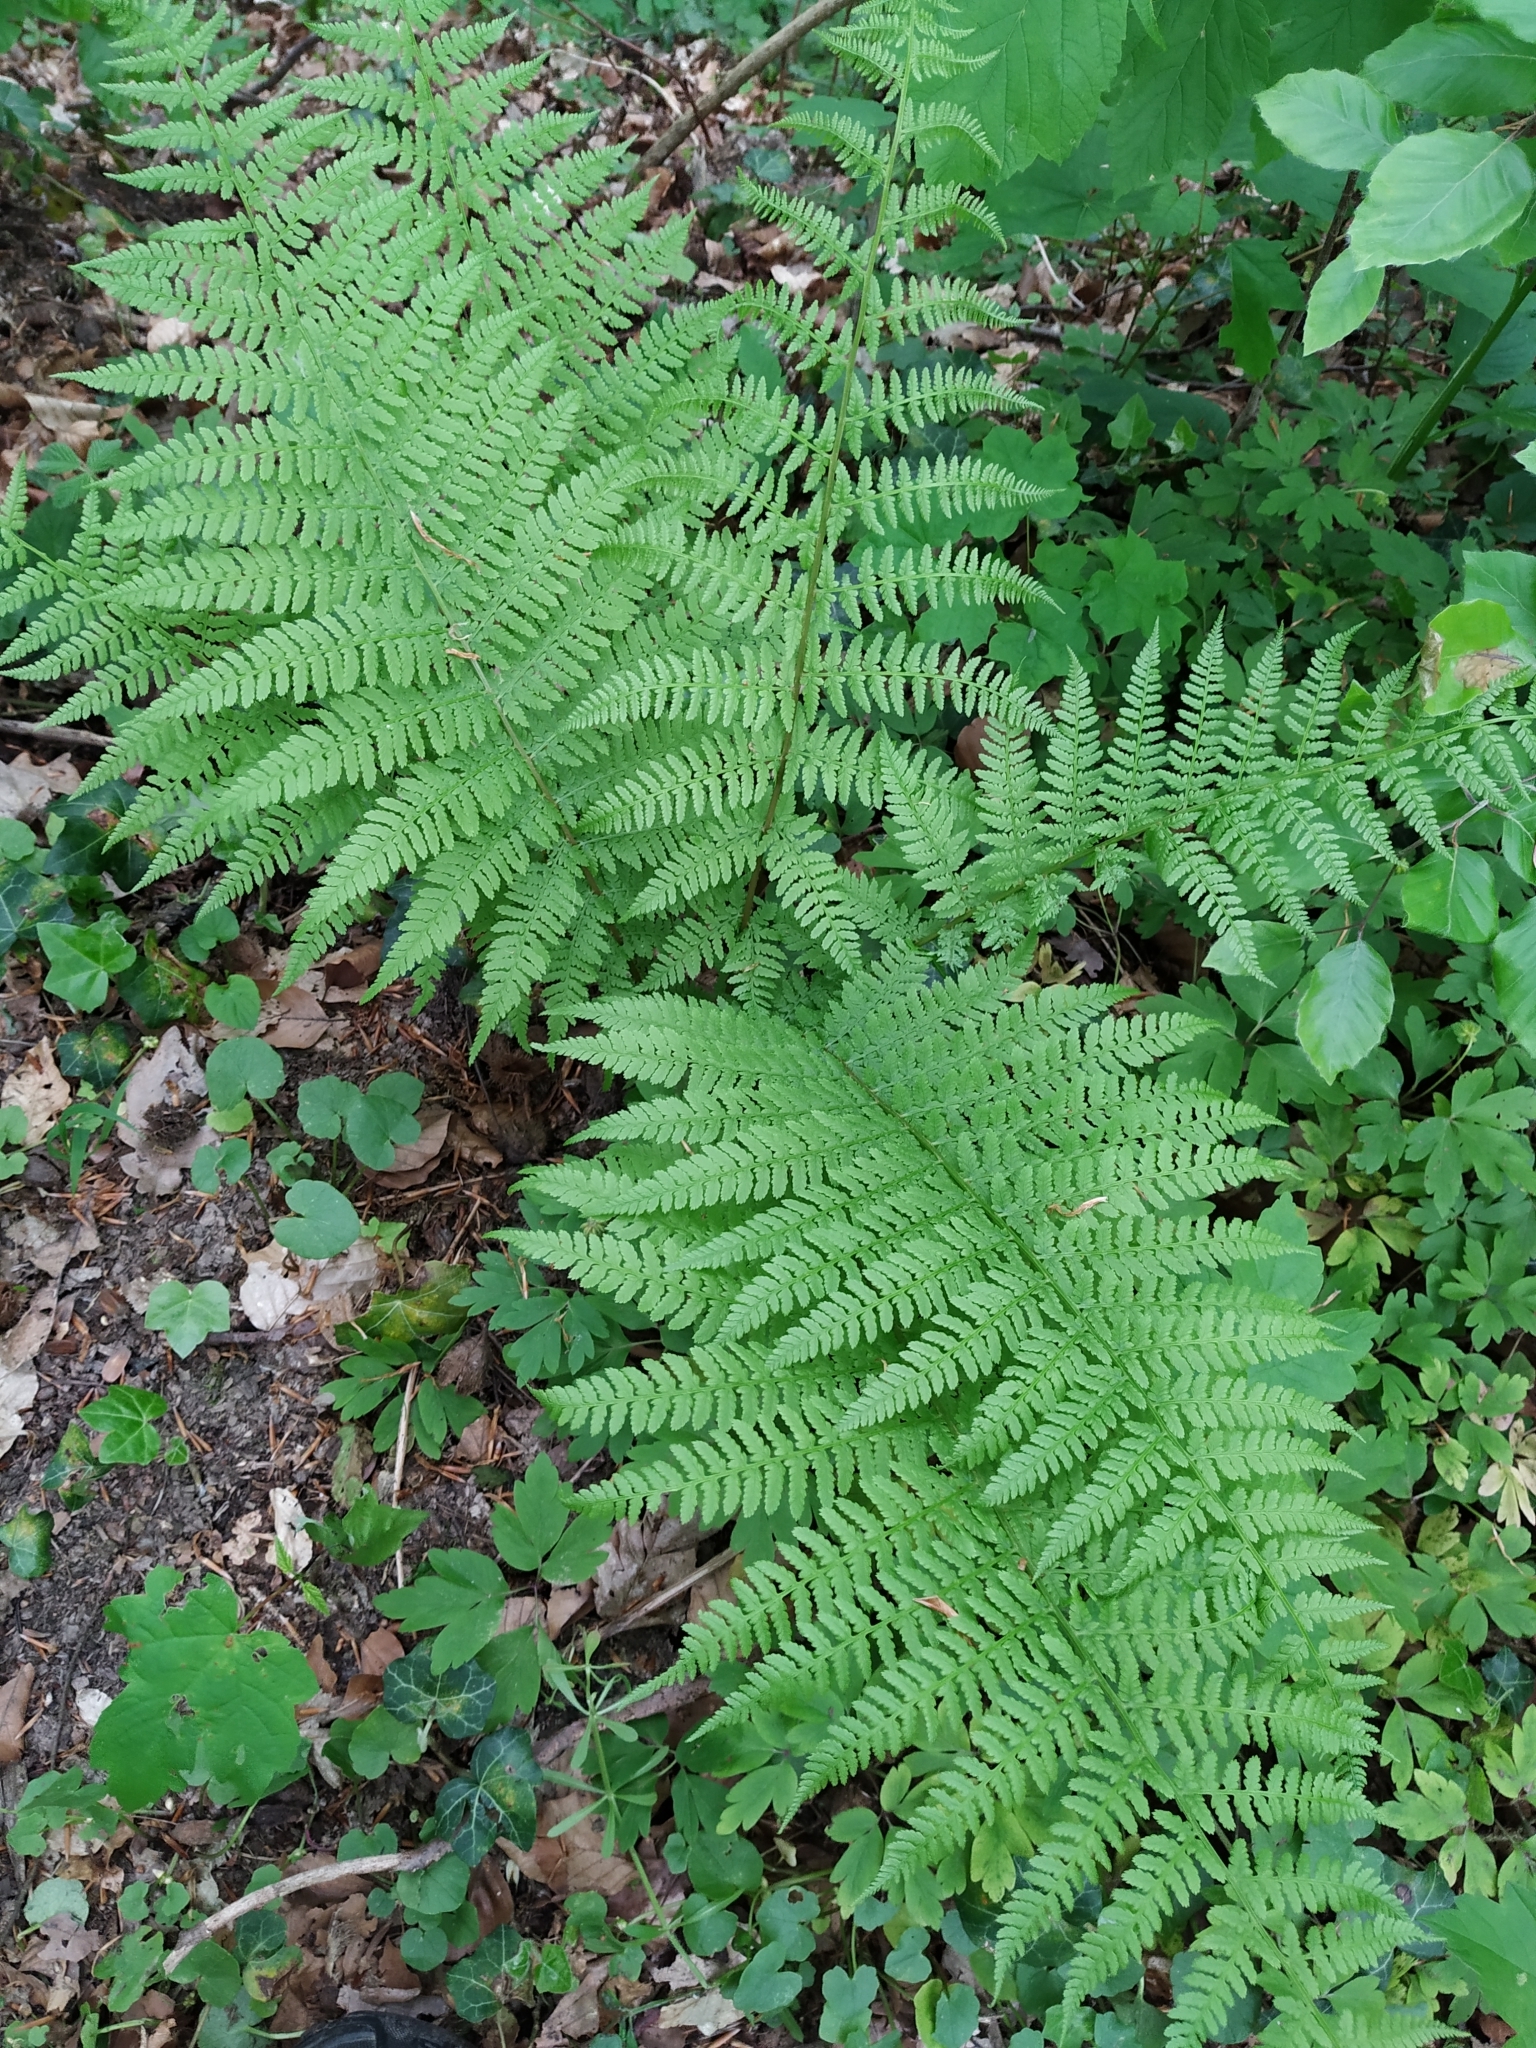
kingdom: Plantae
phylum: Tracheophyta
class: Polypodiopsida
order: Polypodiales
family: Athyriaceae
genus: Athyrium
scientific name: Athyrium filix-femina
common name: Lady fern
